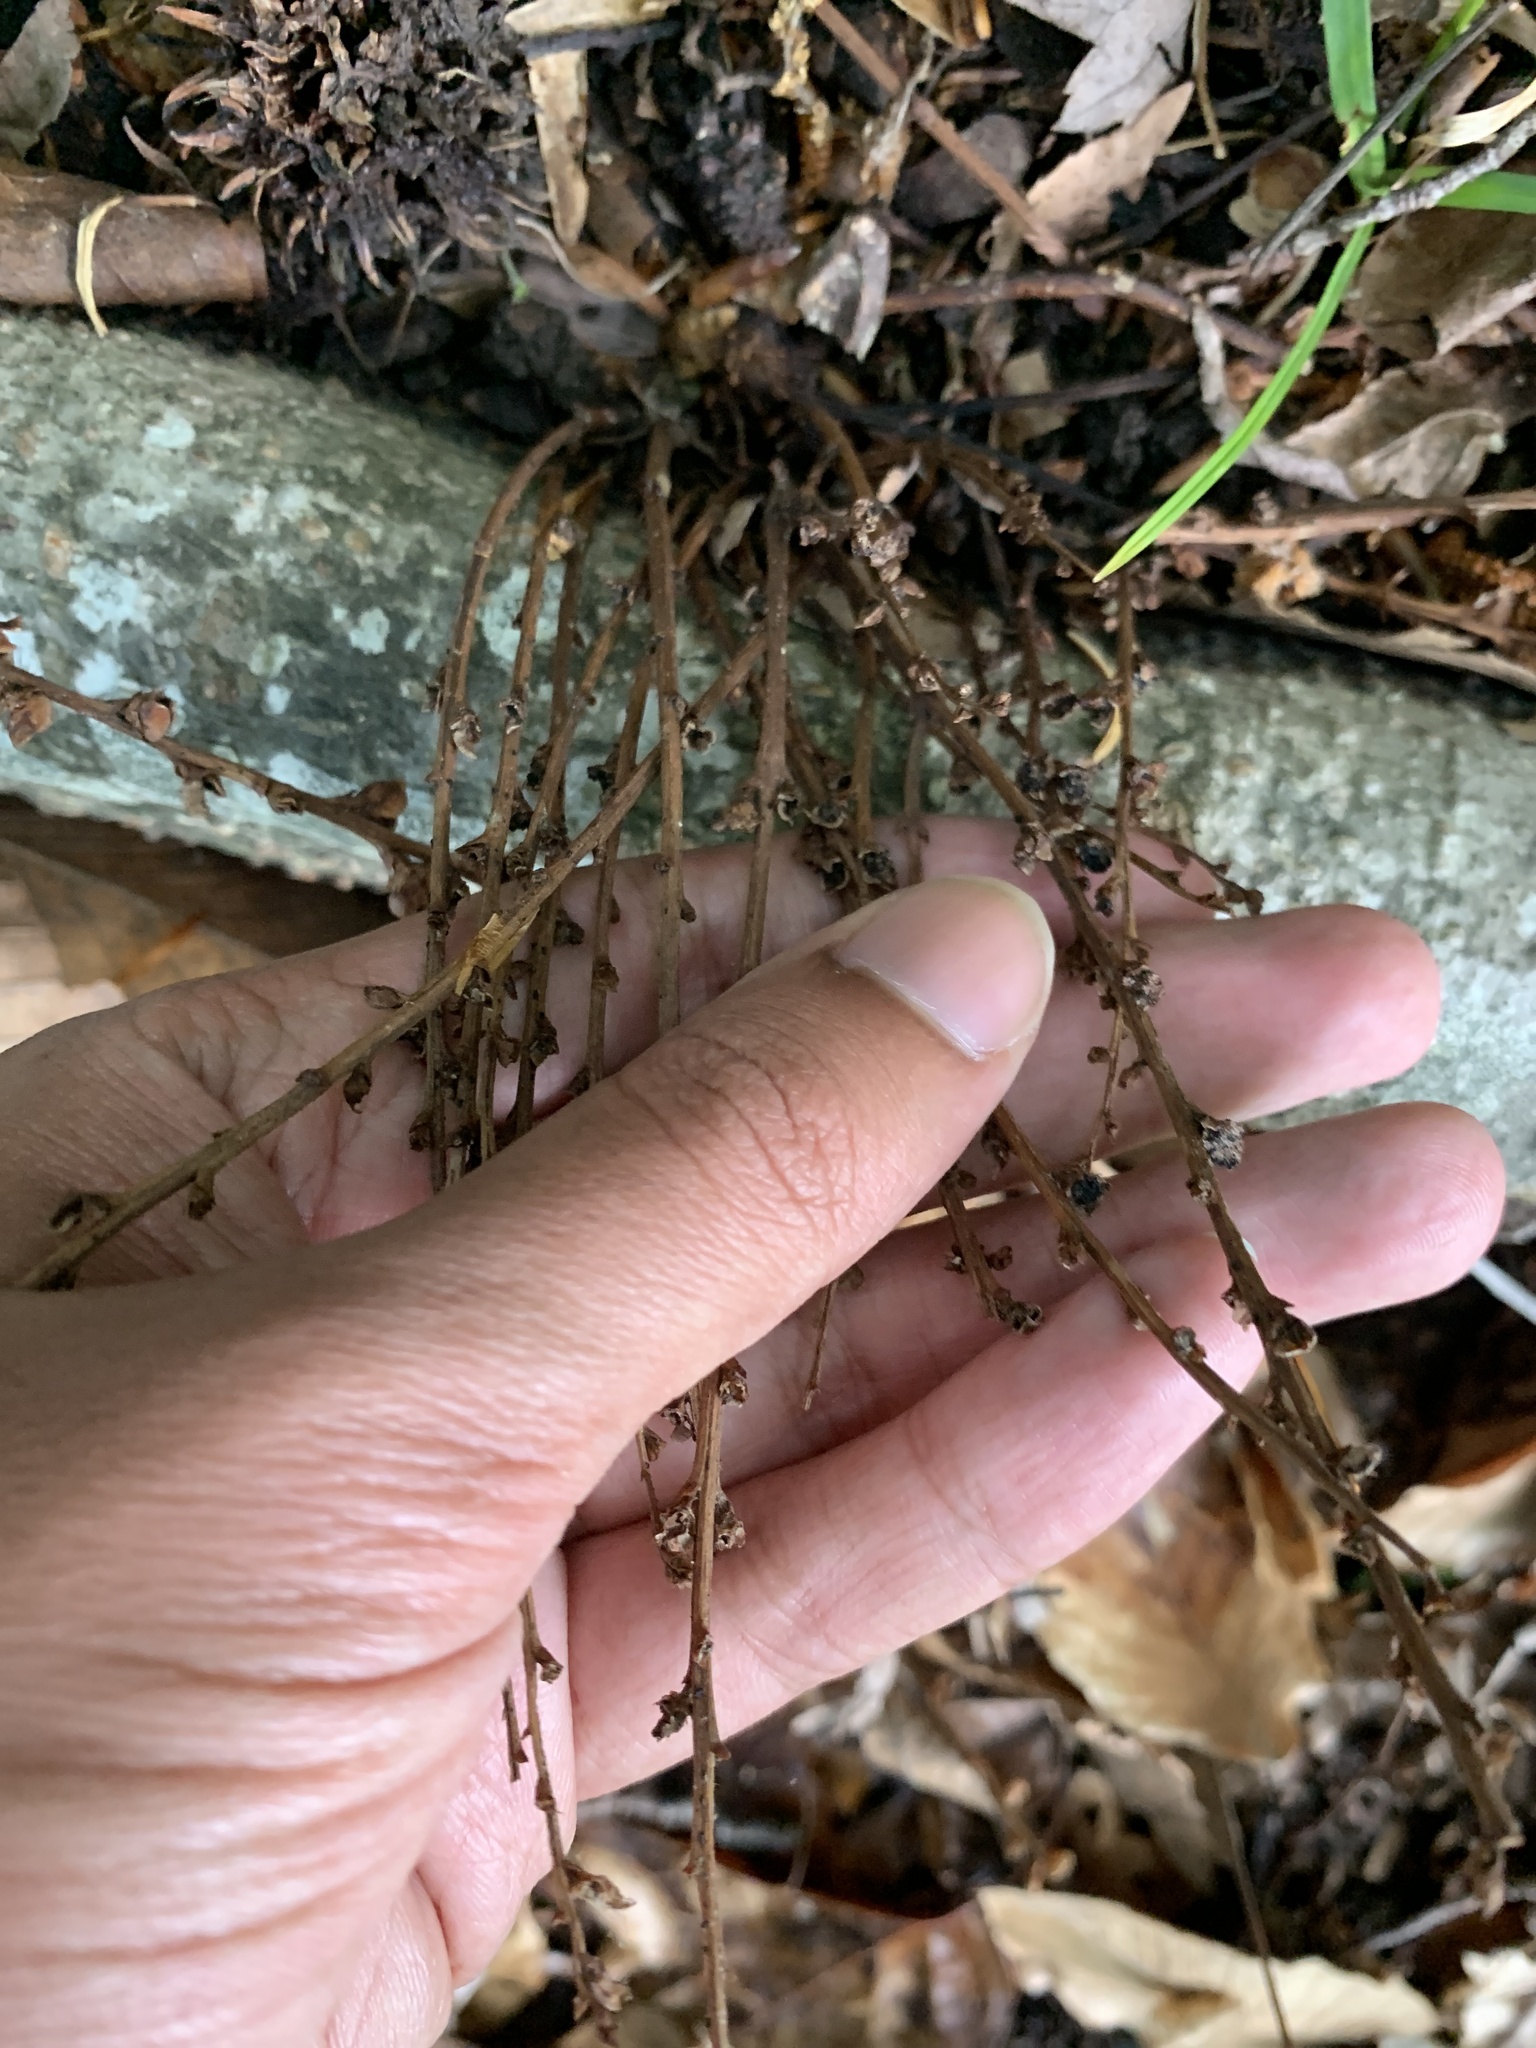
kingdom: Plantae
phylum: Tracheophyta
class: Magnoliopsida
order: Lamiales
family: Orobanchaceae
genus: Epifagus
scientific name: Epifagus virginiana
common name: Beechdrops
